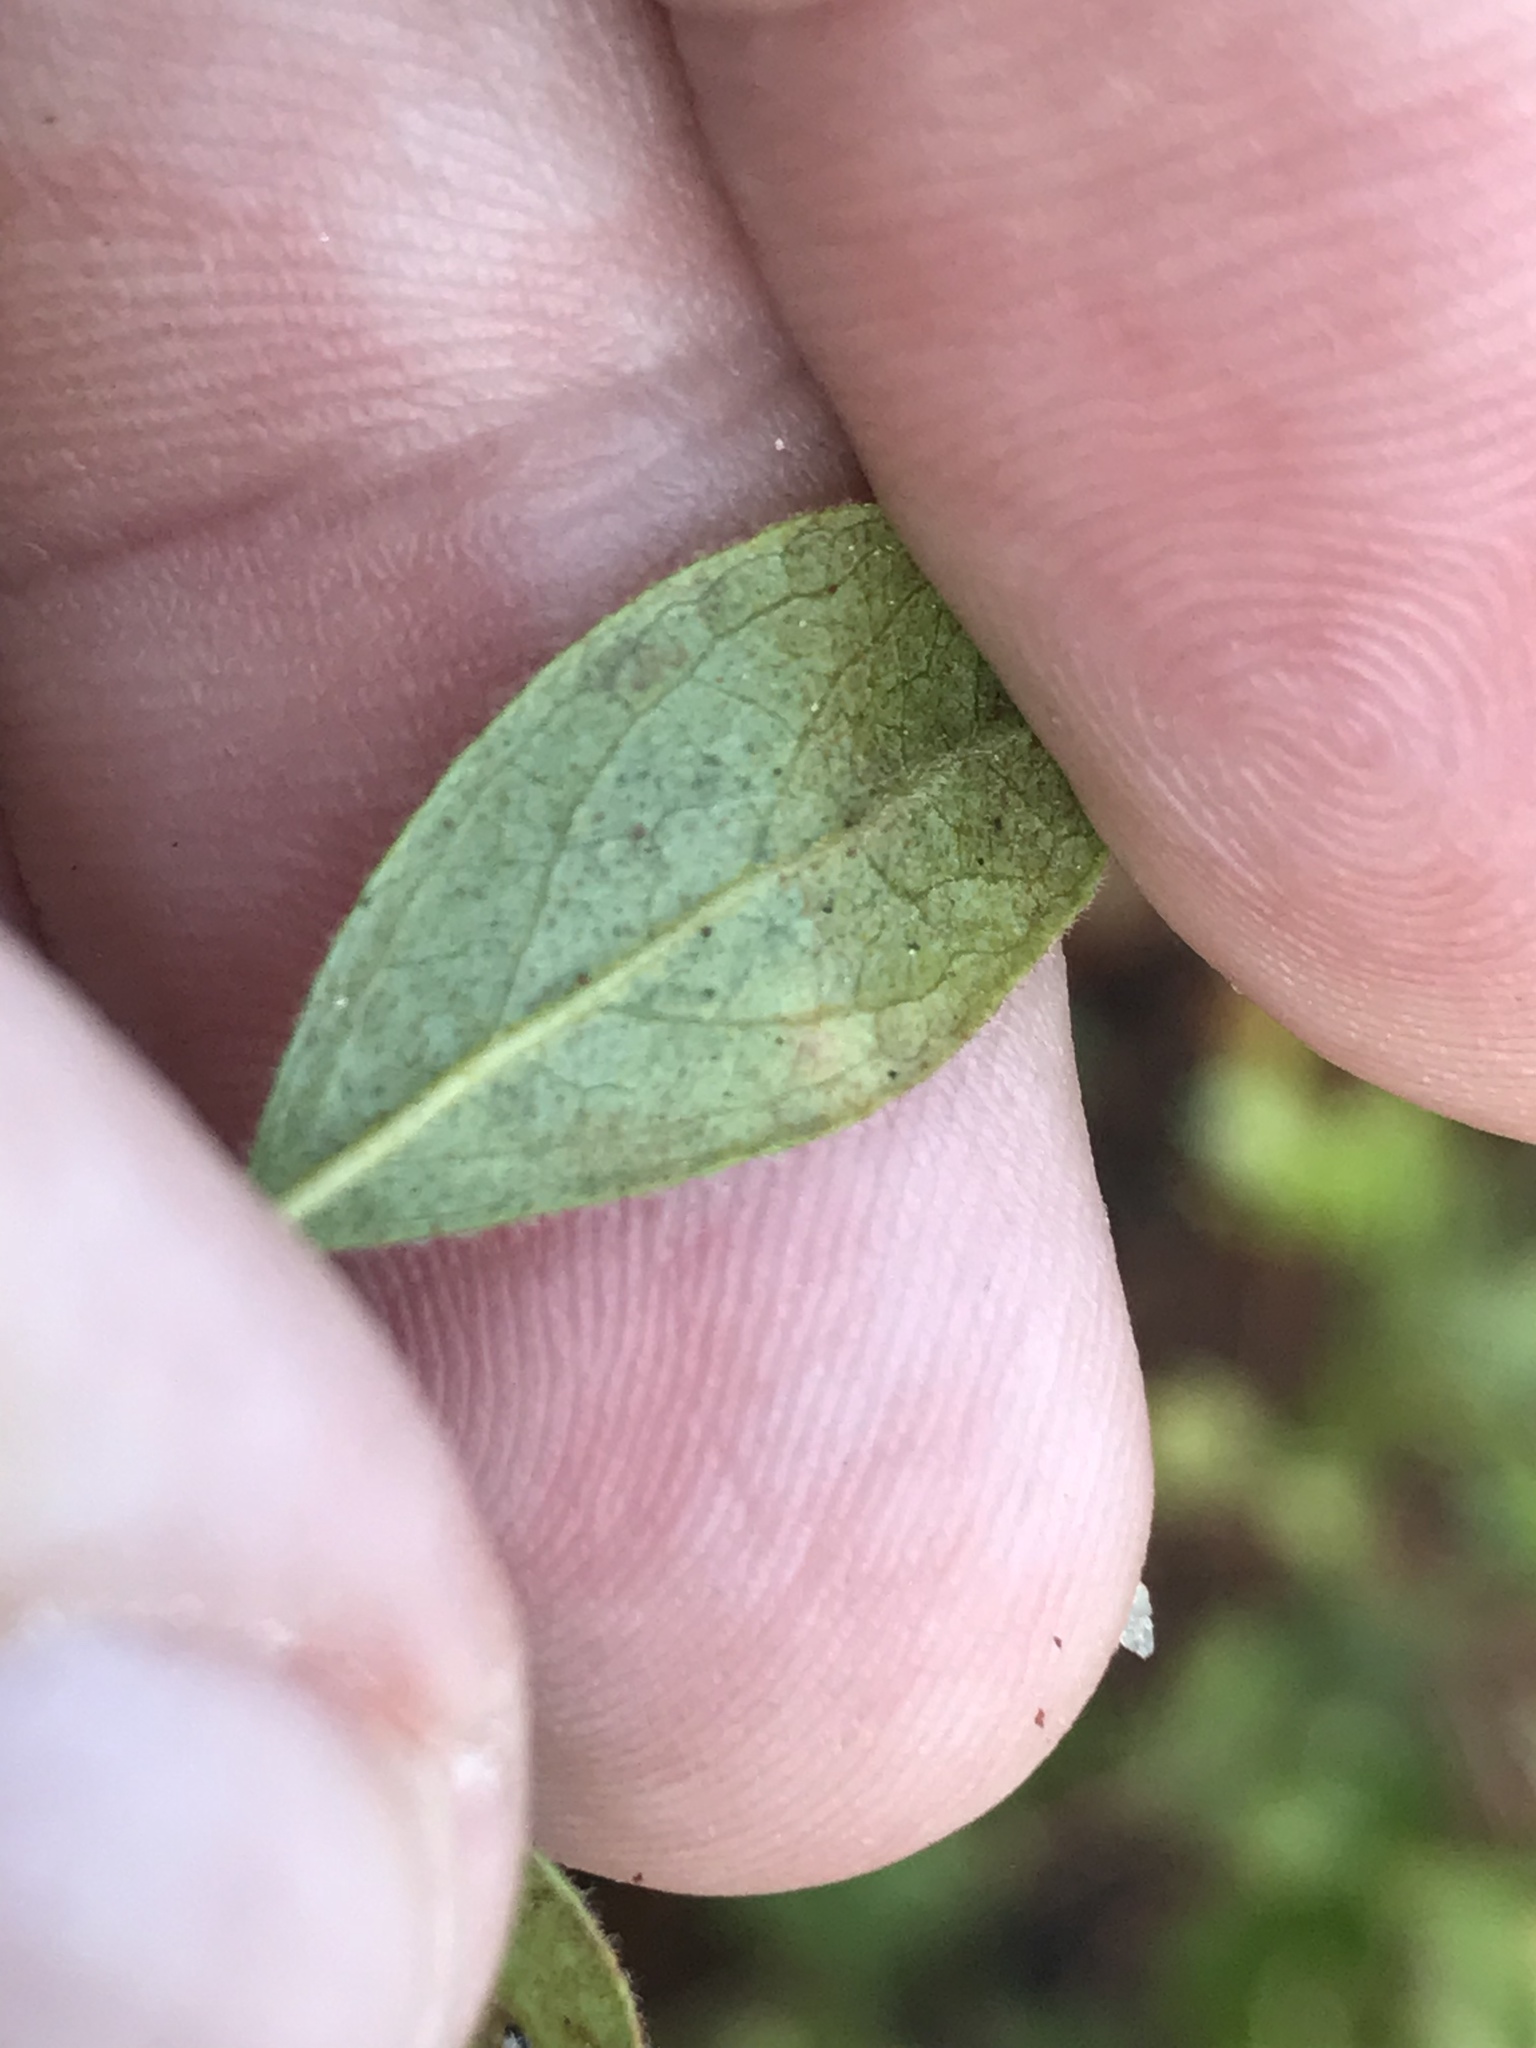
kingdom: Plantae
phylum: Tracheophyta
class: Magnoliopsida
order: Ericales
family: Ericaceae
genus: Gaylussacia
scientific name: Gaylussacia dumosa
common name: Dwarf huckleberry
